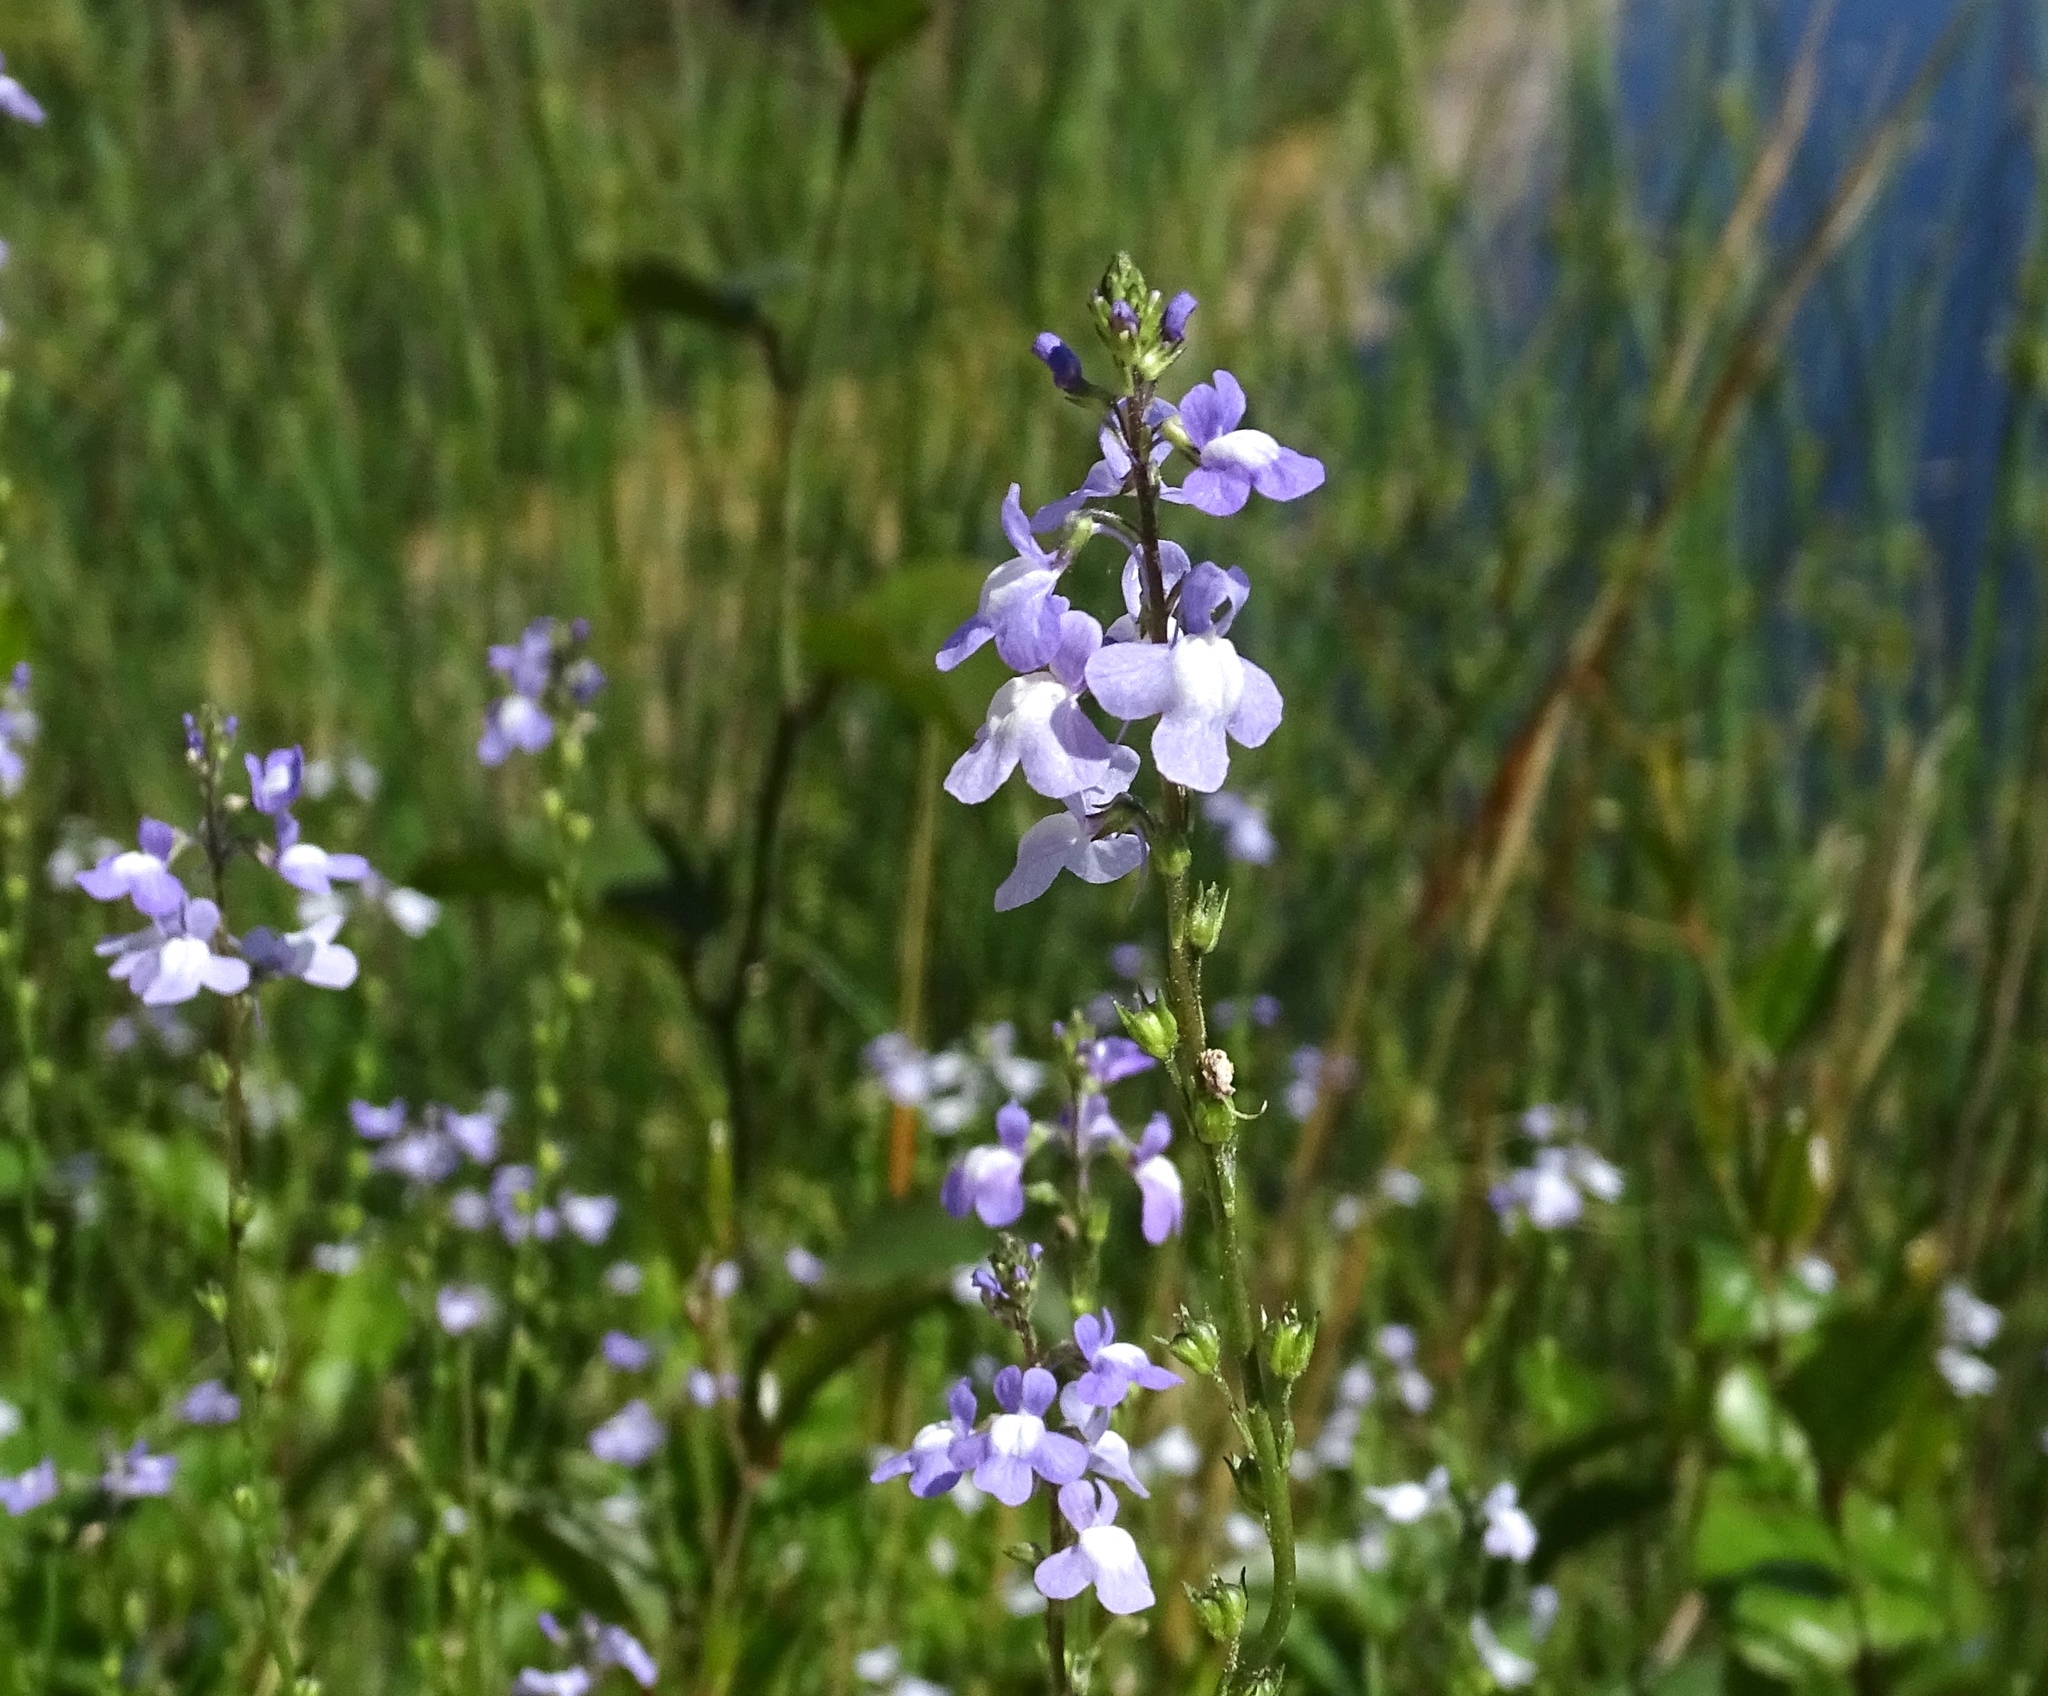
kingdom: Plantae
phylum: Tracheophyta
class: Magnoliopsida
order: Lamiales
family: Plantaginaceae
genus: Nuttallanthus
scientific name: Nuttallanthus canadensis
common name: Blue toadflax
